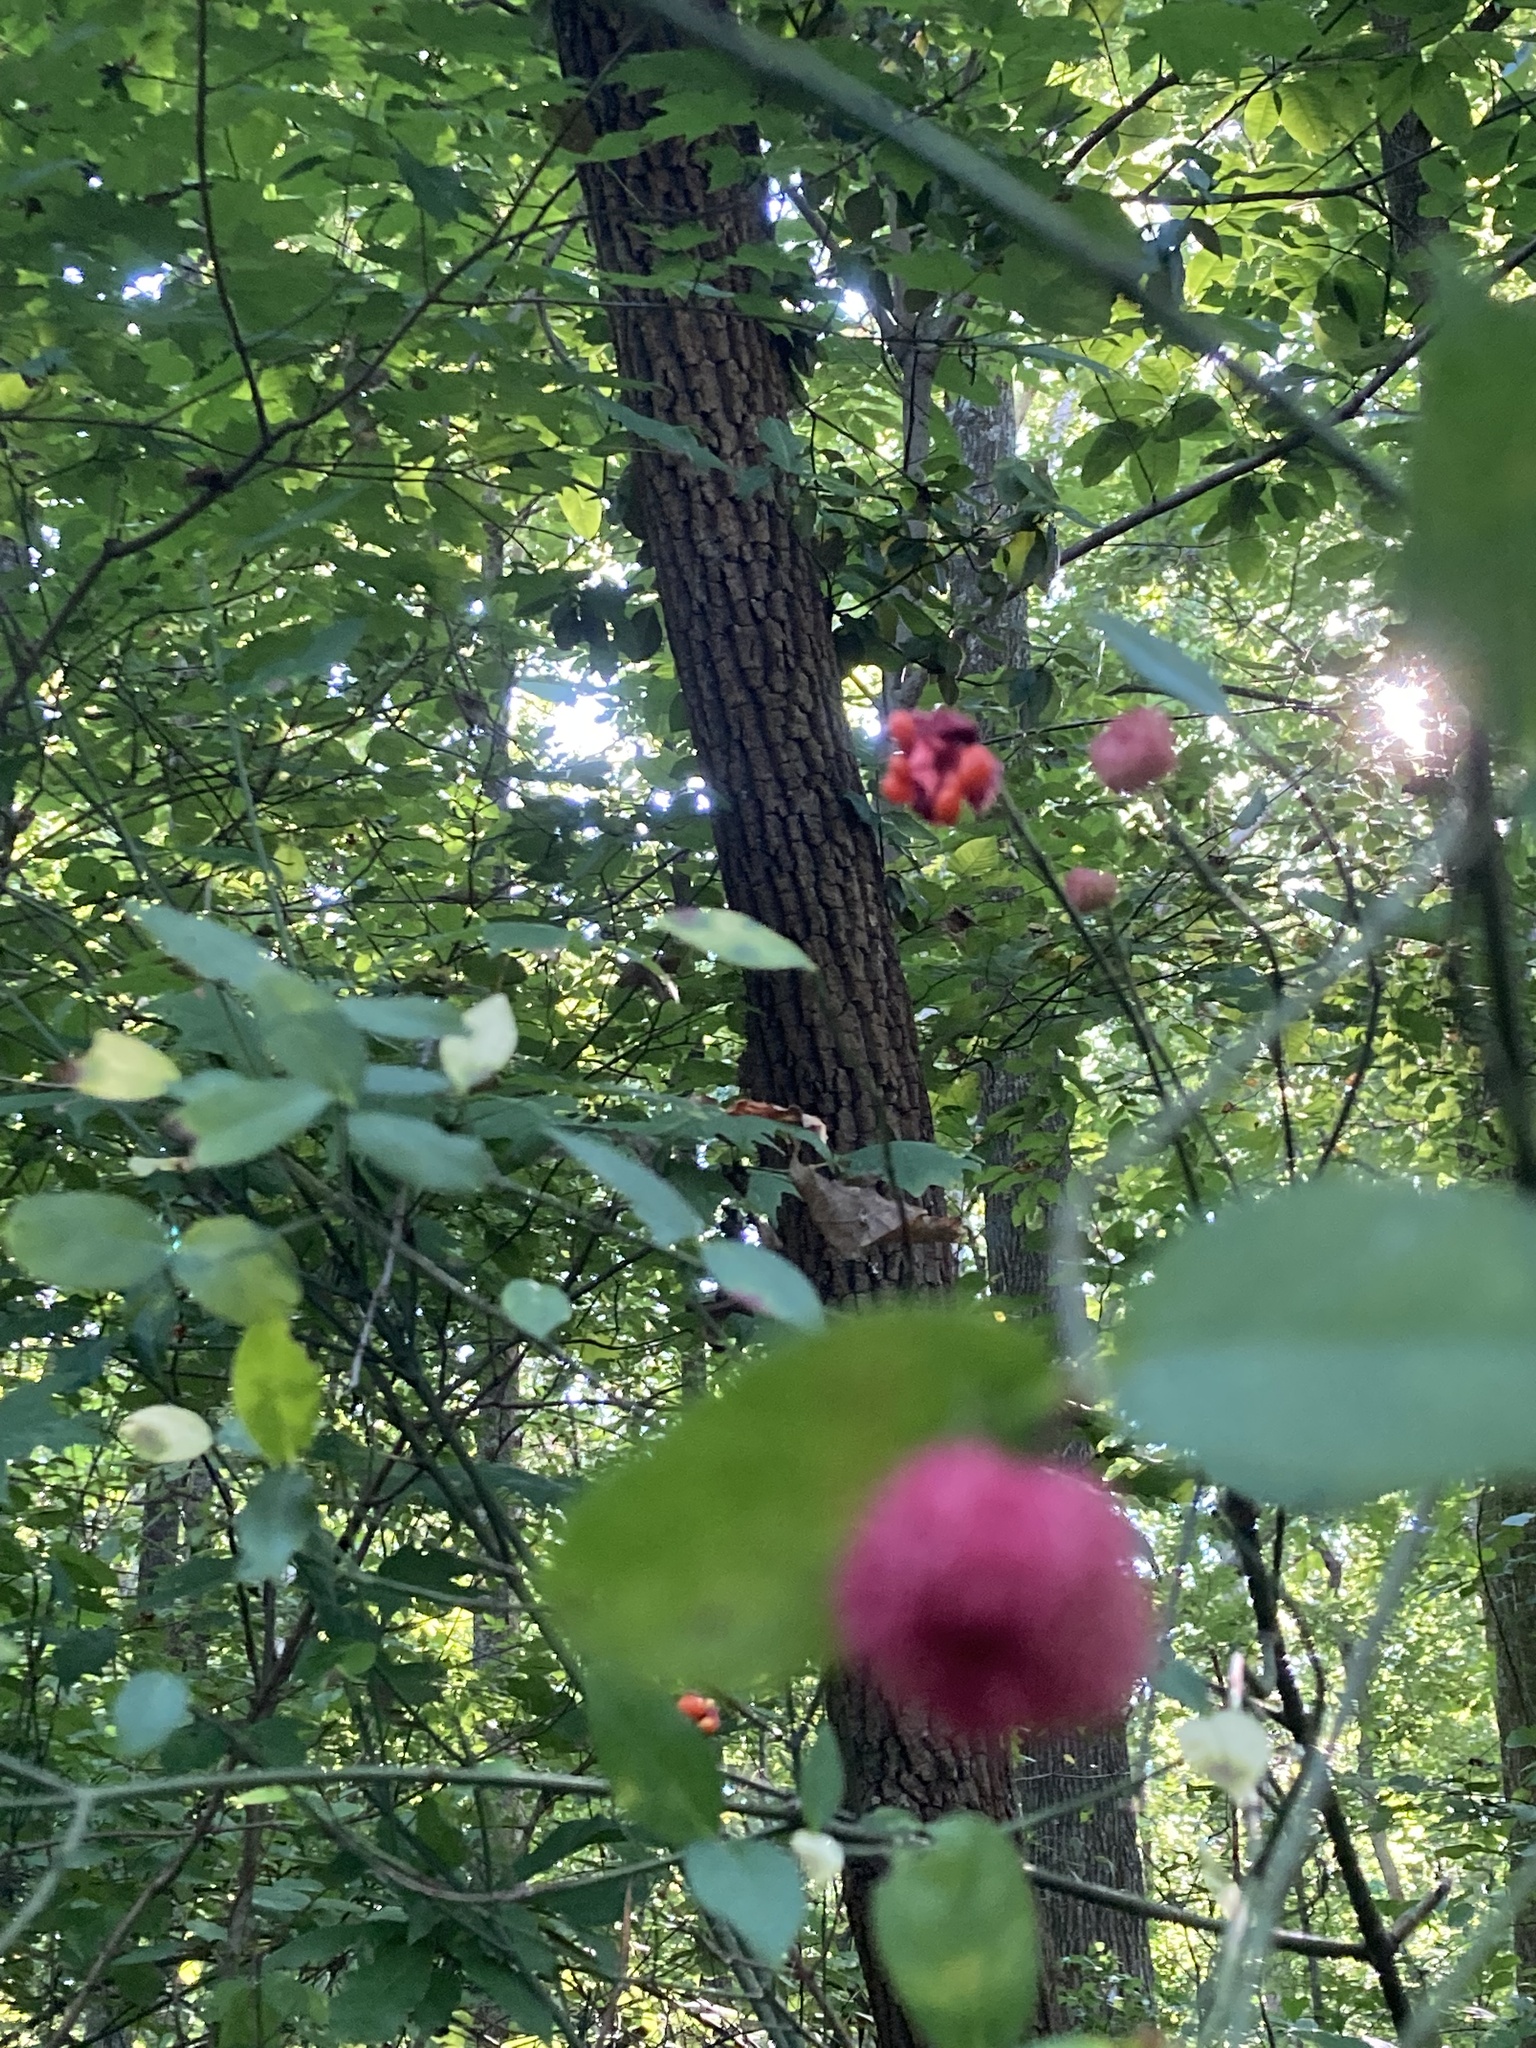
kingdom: Plantae
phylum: Tracheophyta
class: Magnoliopsida
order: Celastrales
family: Celastraceae
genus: Euonymus
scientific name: Euonymus americanus
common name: Bursting-heart
